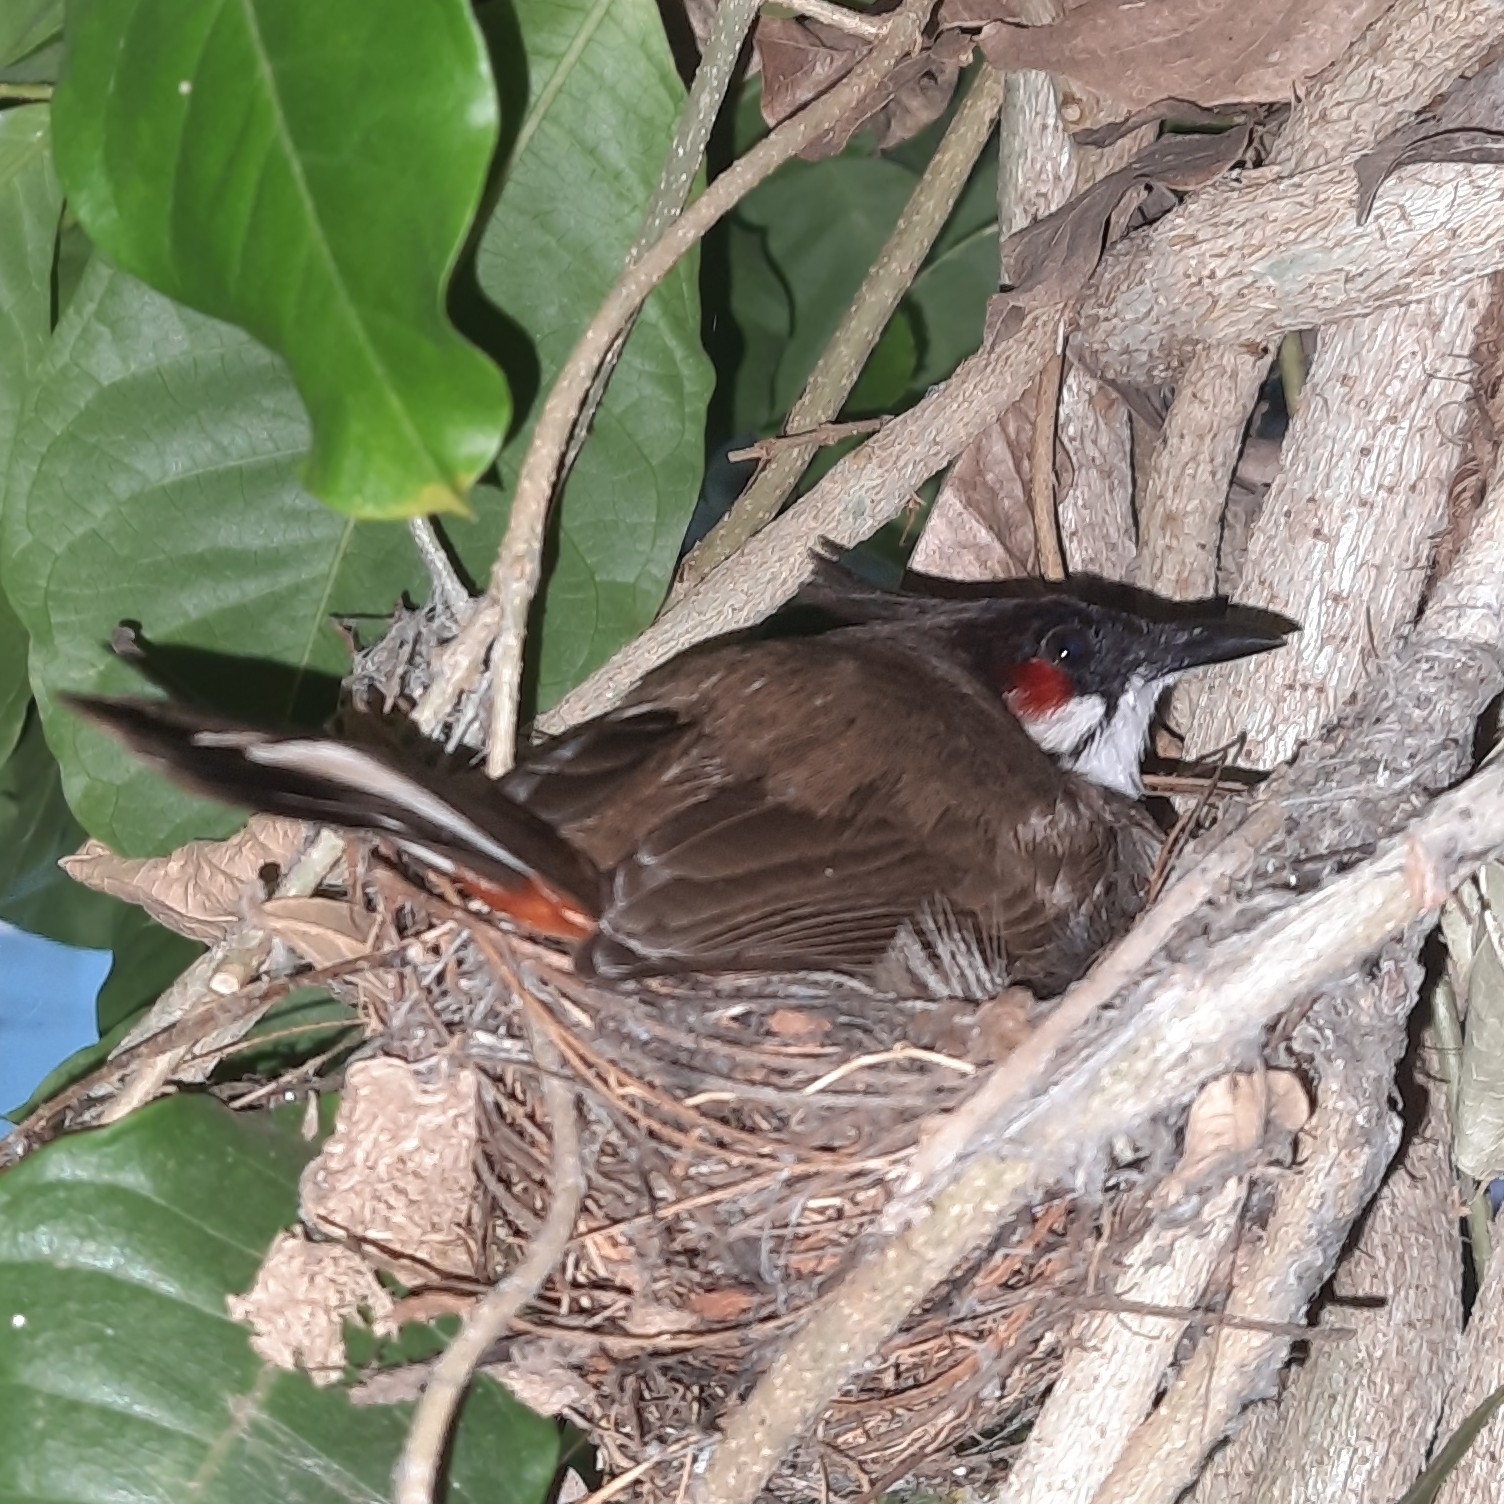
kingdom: Animalia
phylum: Chordata
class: Aves
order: Passeriformes
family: Pycnonotidae
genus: Pycnonotus
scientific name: Pycnonotus jocosus
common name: Red-whiskered bulbul
